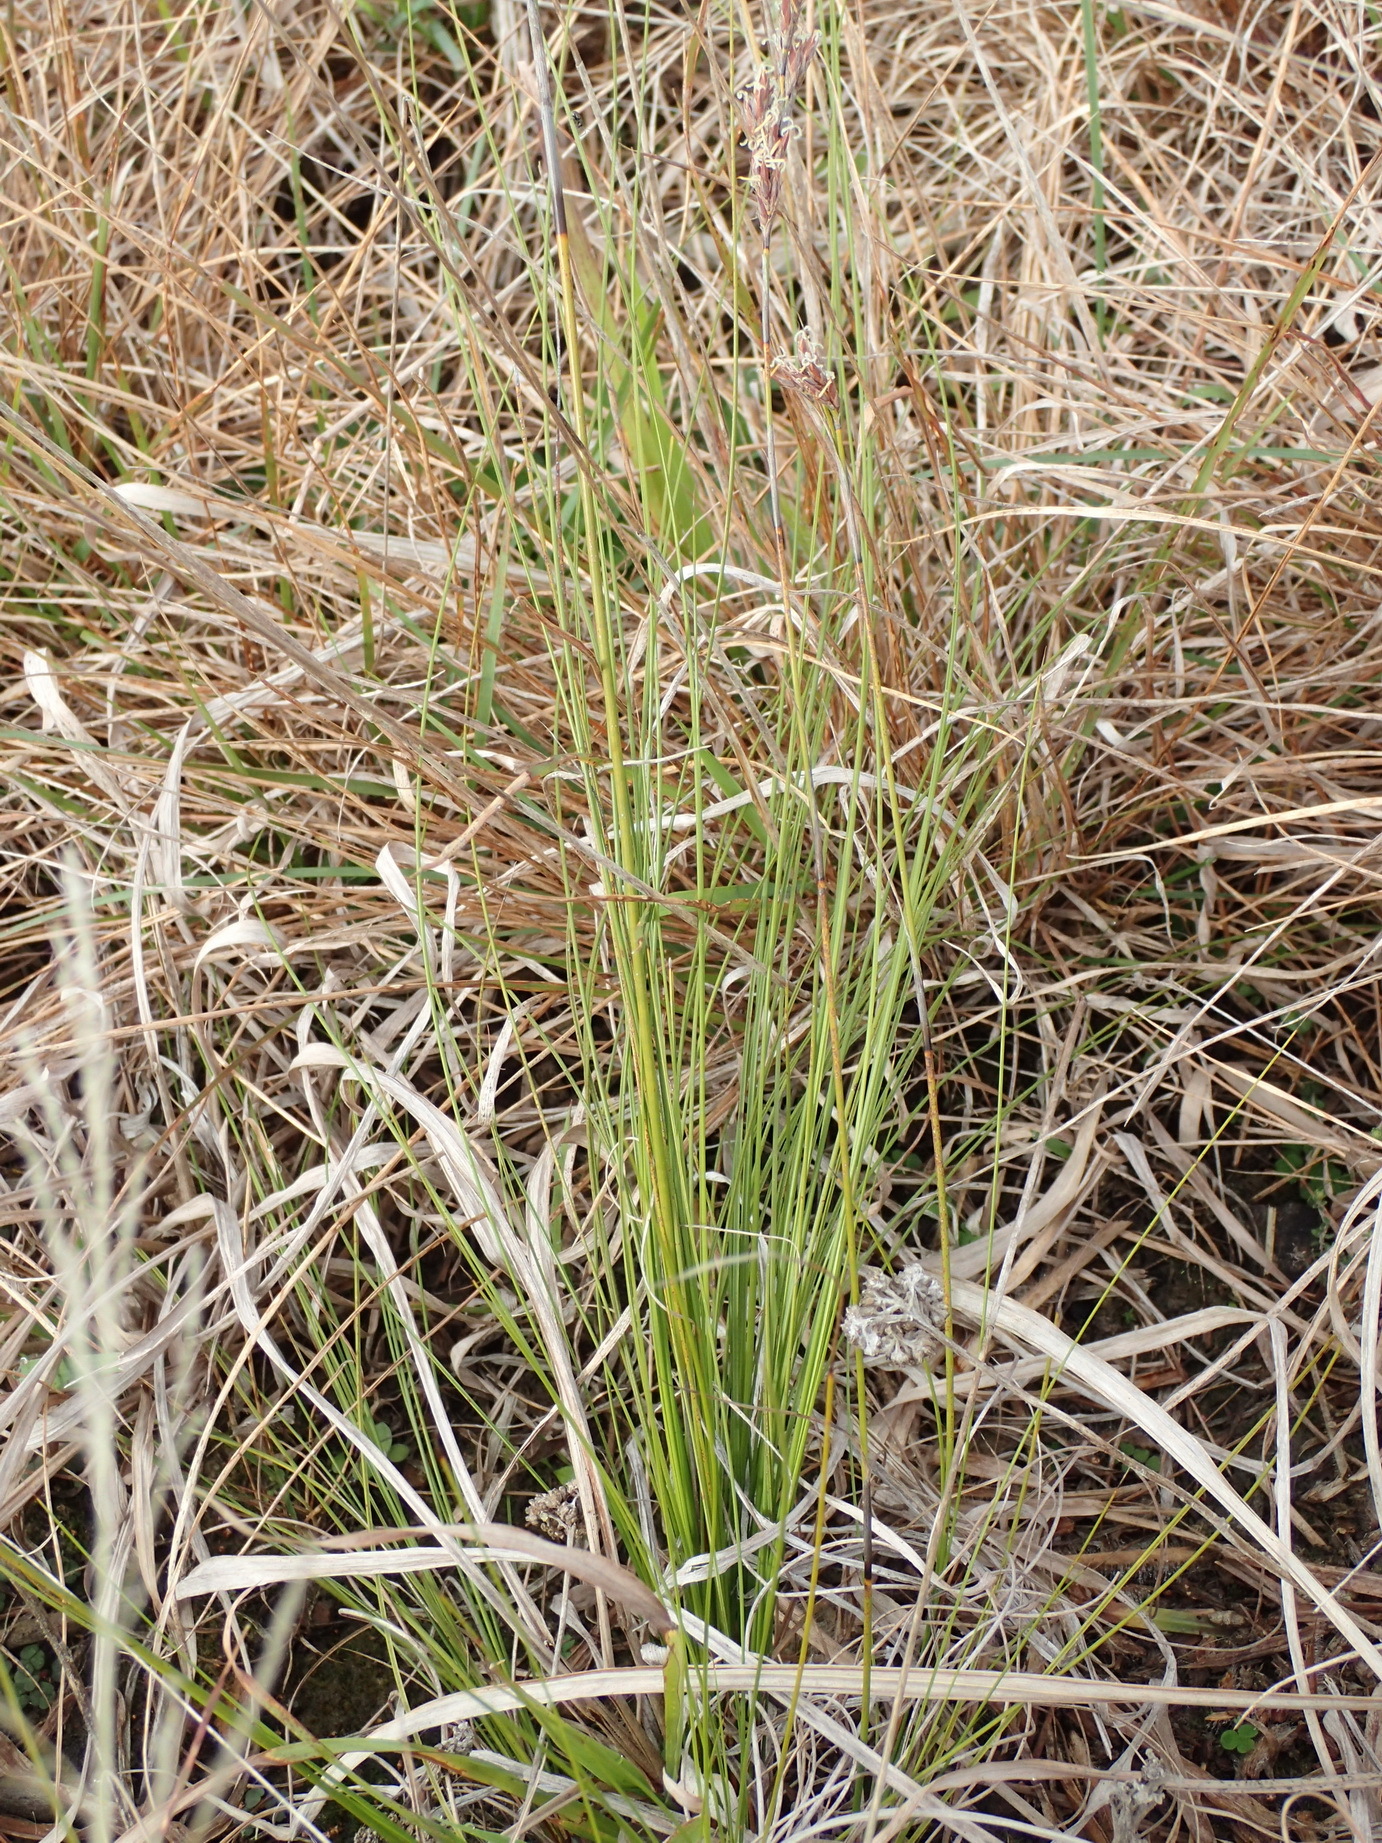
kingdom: Plantae
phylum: Tracheophyta
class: Liliopsida
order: Asparagales
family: Iridaceae
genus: Bobartia
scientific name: Bobartia aphylla
